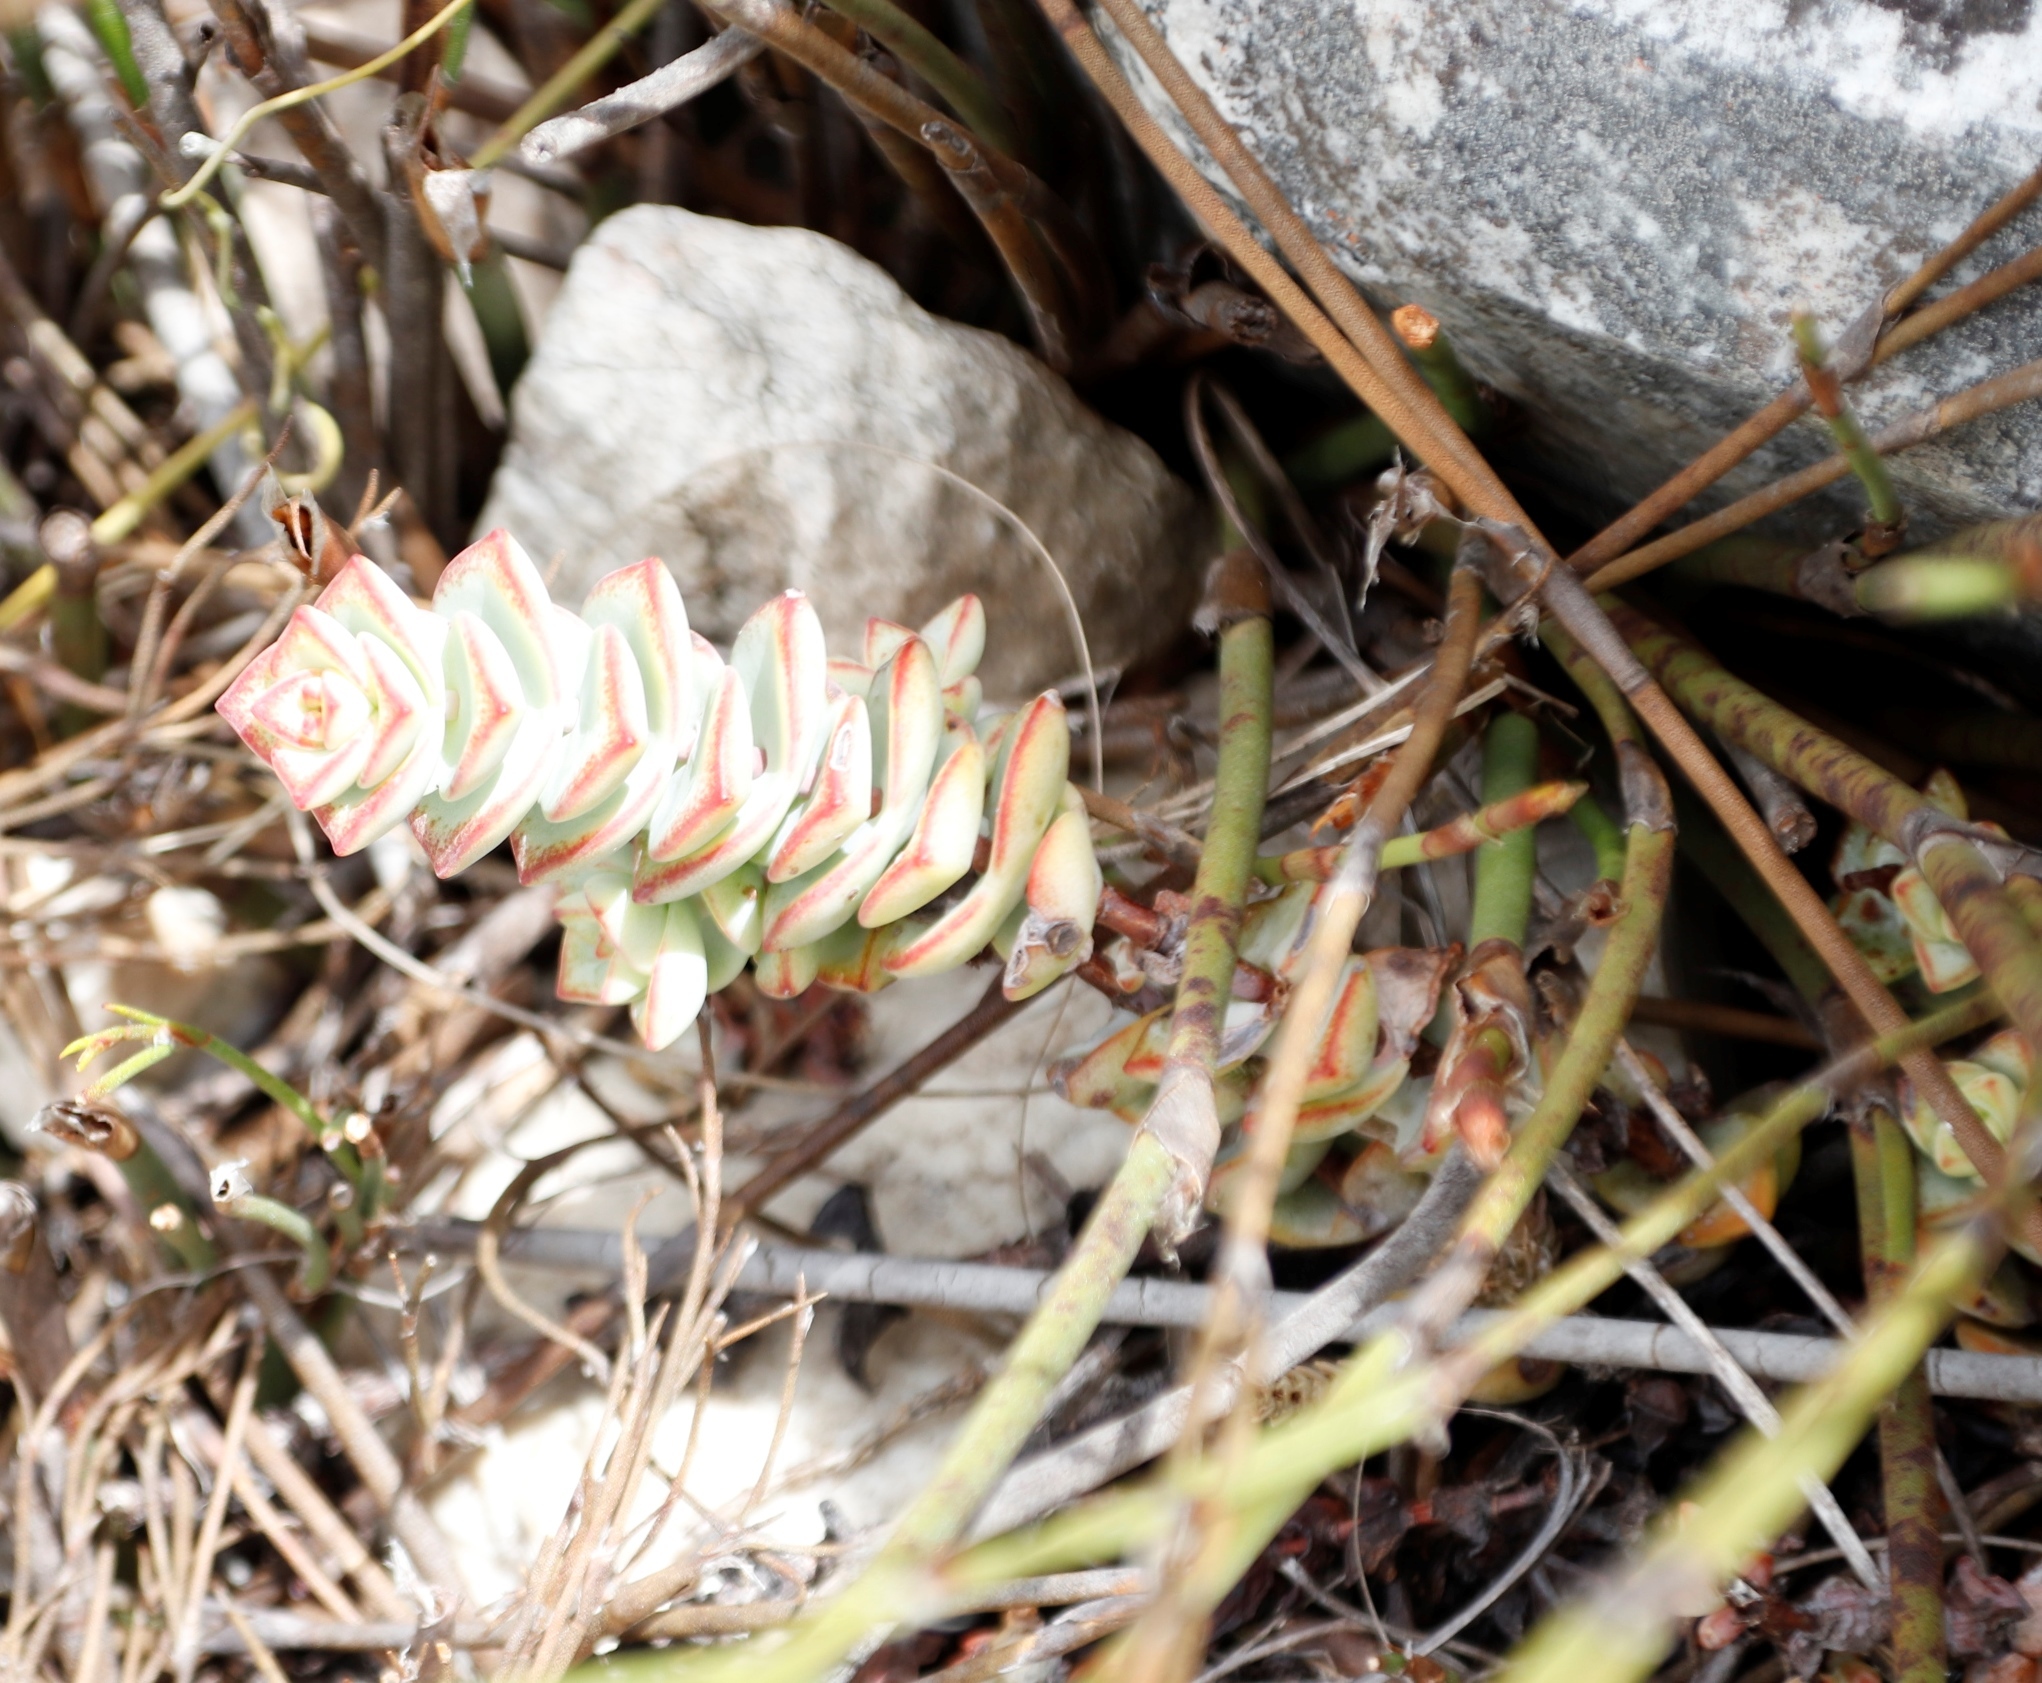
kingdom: Plantae
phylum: Tracheophyta
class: Magnoliopsida
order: Saxifragales
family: Crassulaceae
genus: Crassula
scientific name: Crassula rupestris
